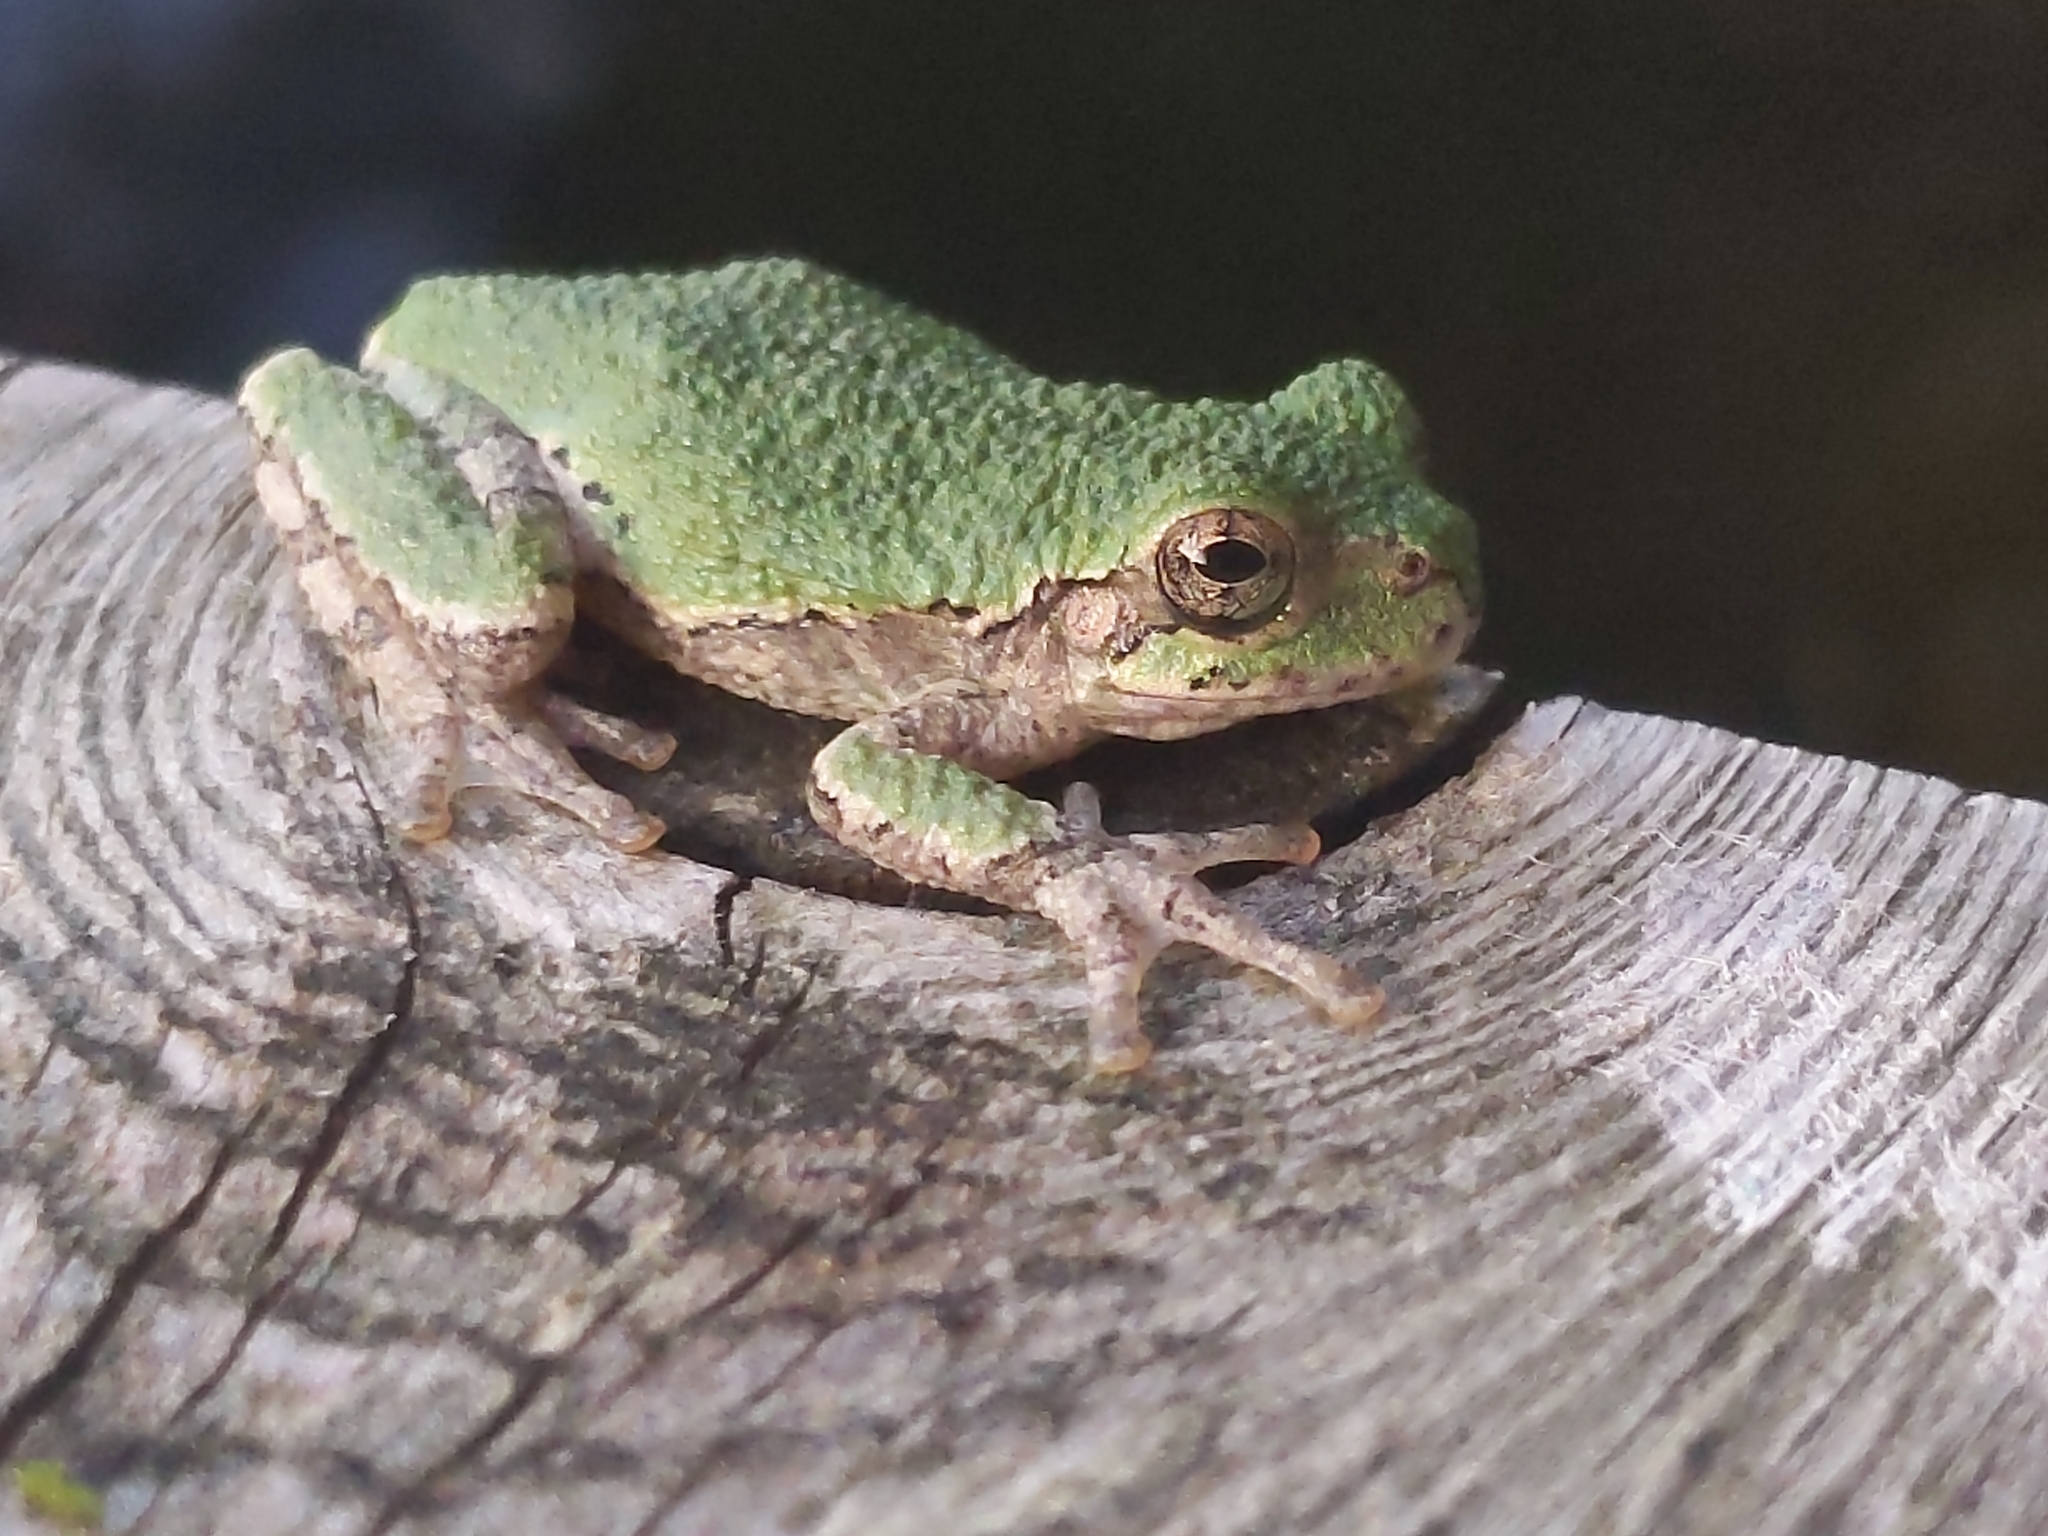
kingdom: Animalia
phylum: Chordata
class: Amphibia
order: Anura
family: Hylidae
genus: Dryophytes
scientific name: Dryophytes versicolor
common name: Gray treefrog
